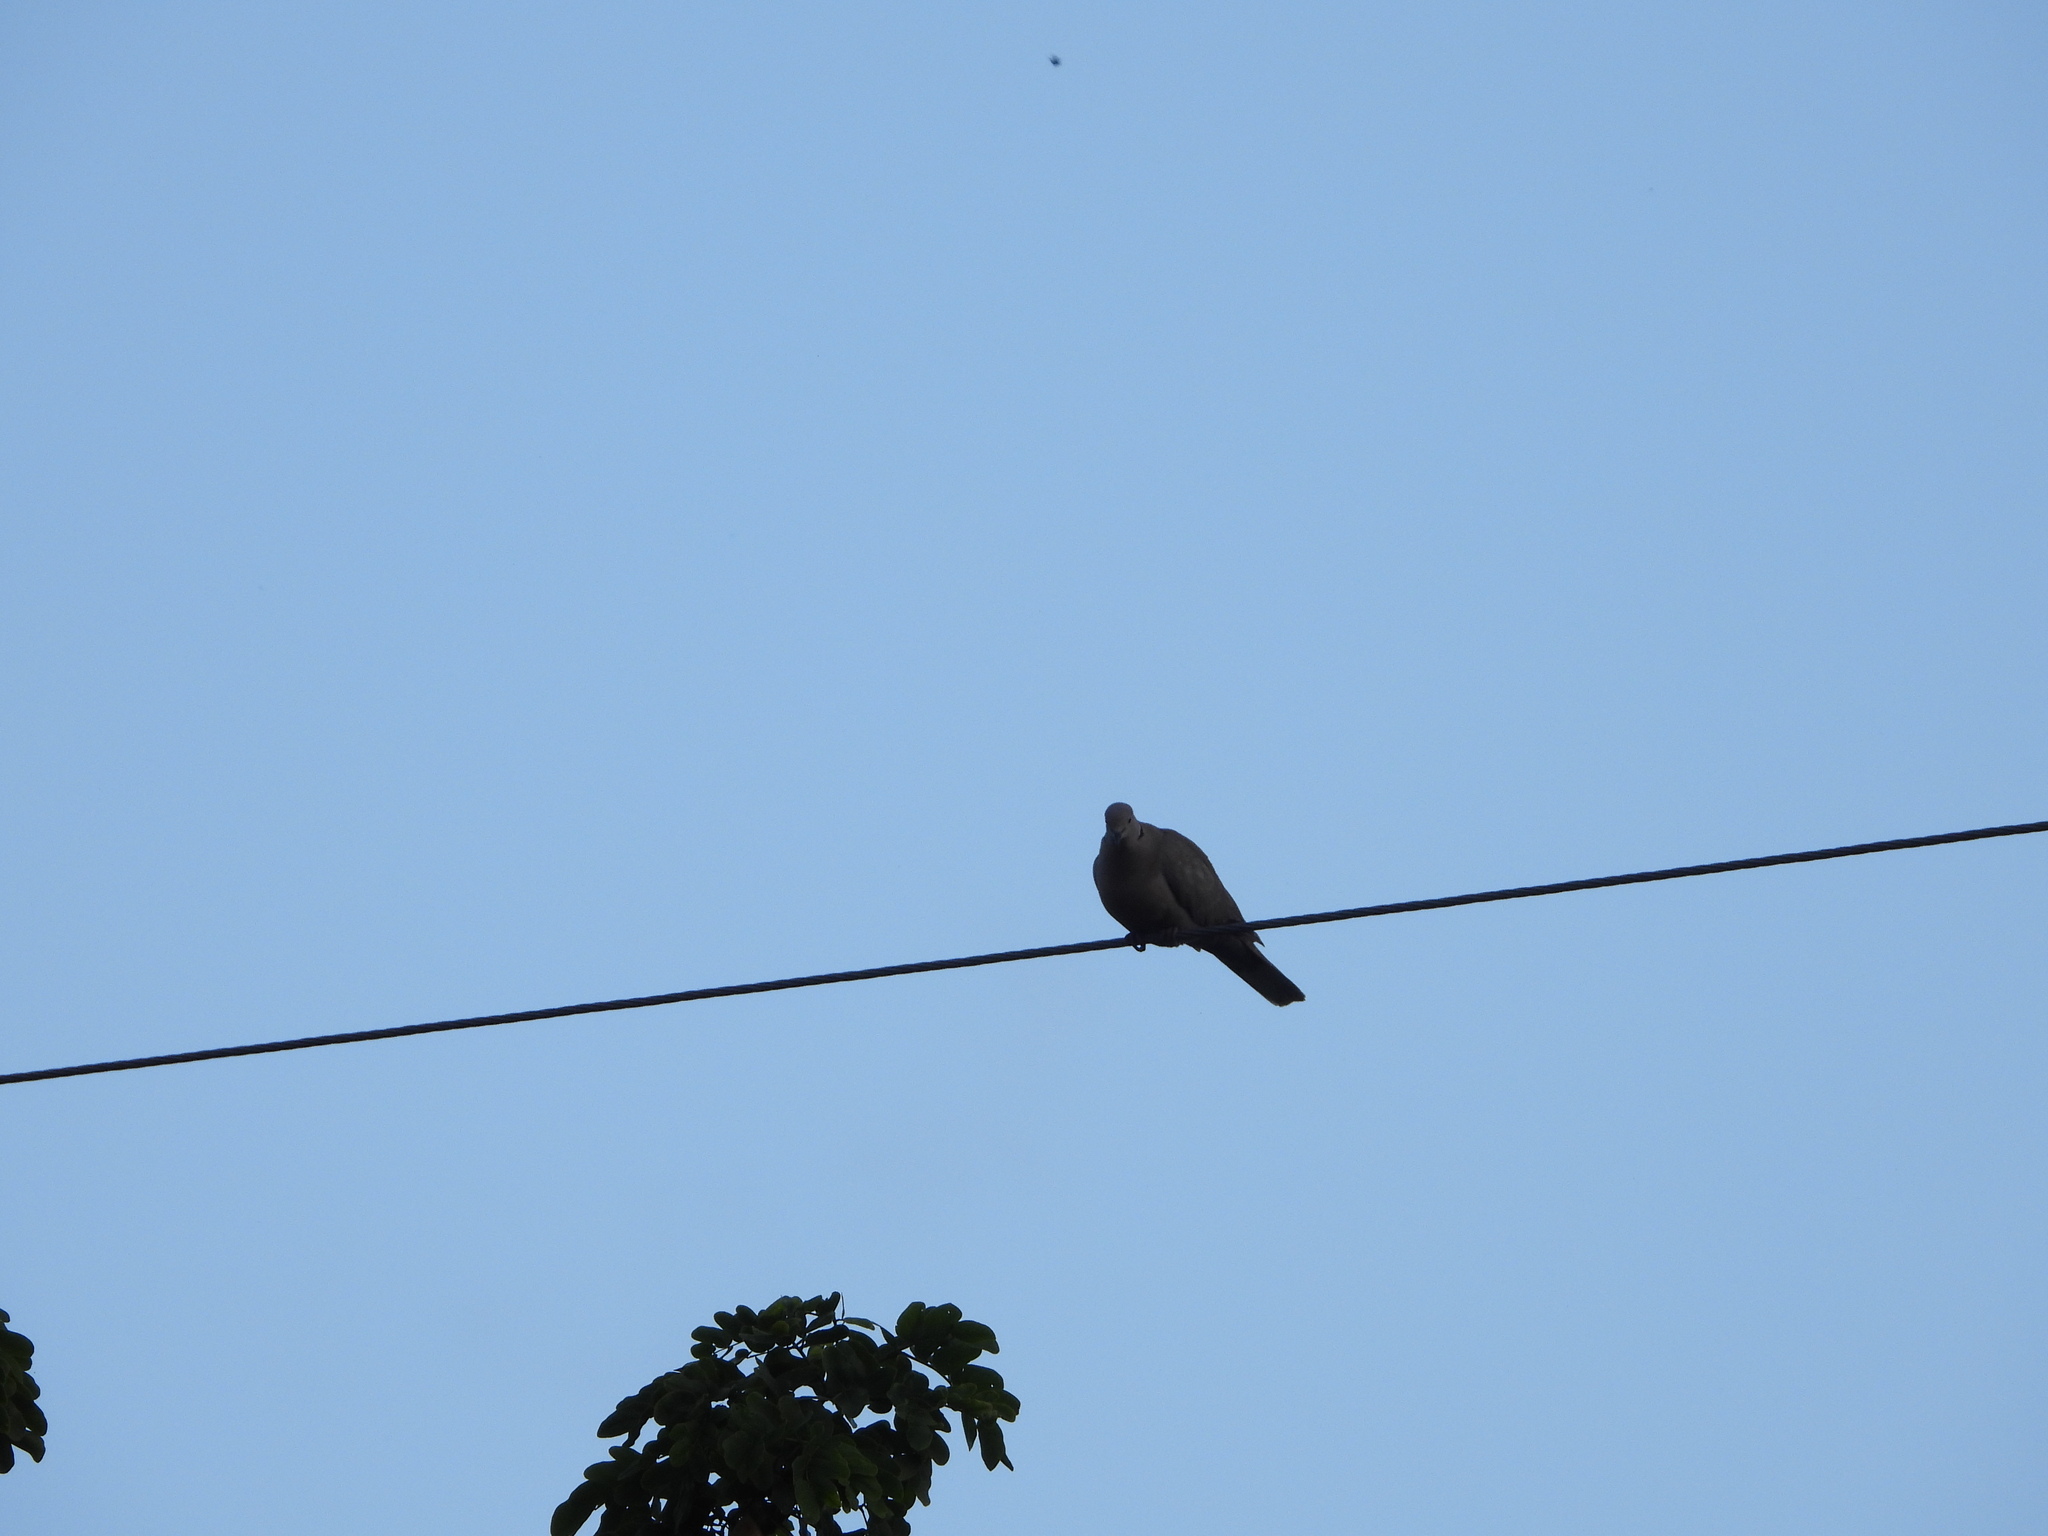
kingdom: Animalia
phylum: Chordata
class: Aves
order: Columbiformes
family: Columbidae
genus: Streptopelia
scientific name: Streptopelia decaocto
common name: Eurasian collared dove
